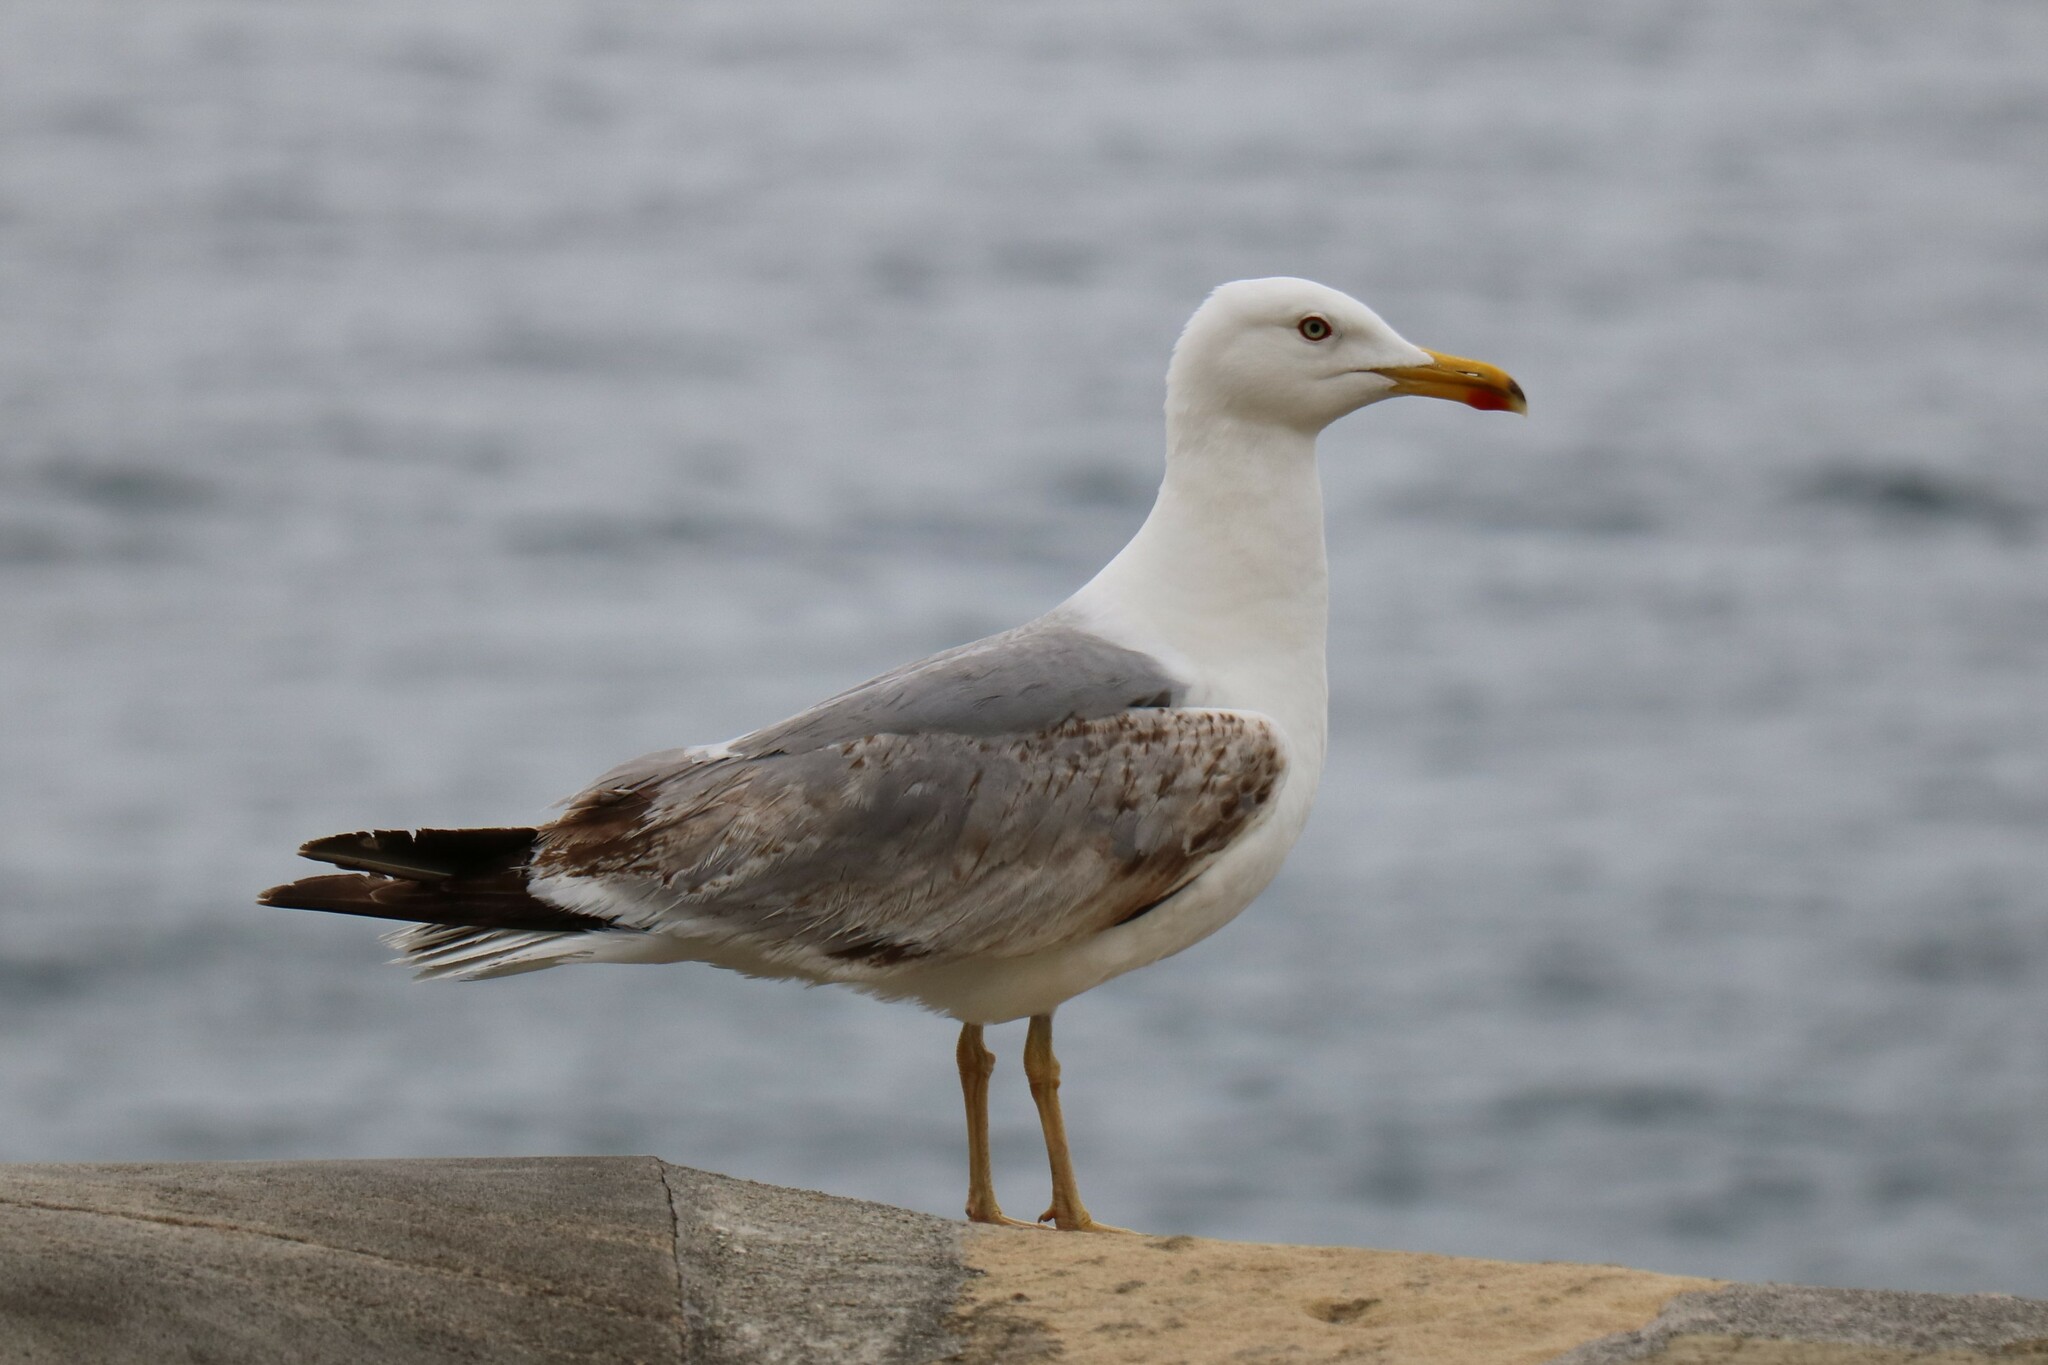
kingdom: Animalia
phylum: Chordata
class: Aves
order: Charadriiformes
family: Laridae
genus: Larus
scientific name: Larus michahellis
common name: Yellow-legged gull
